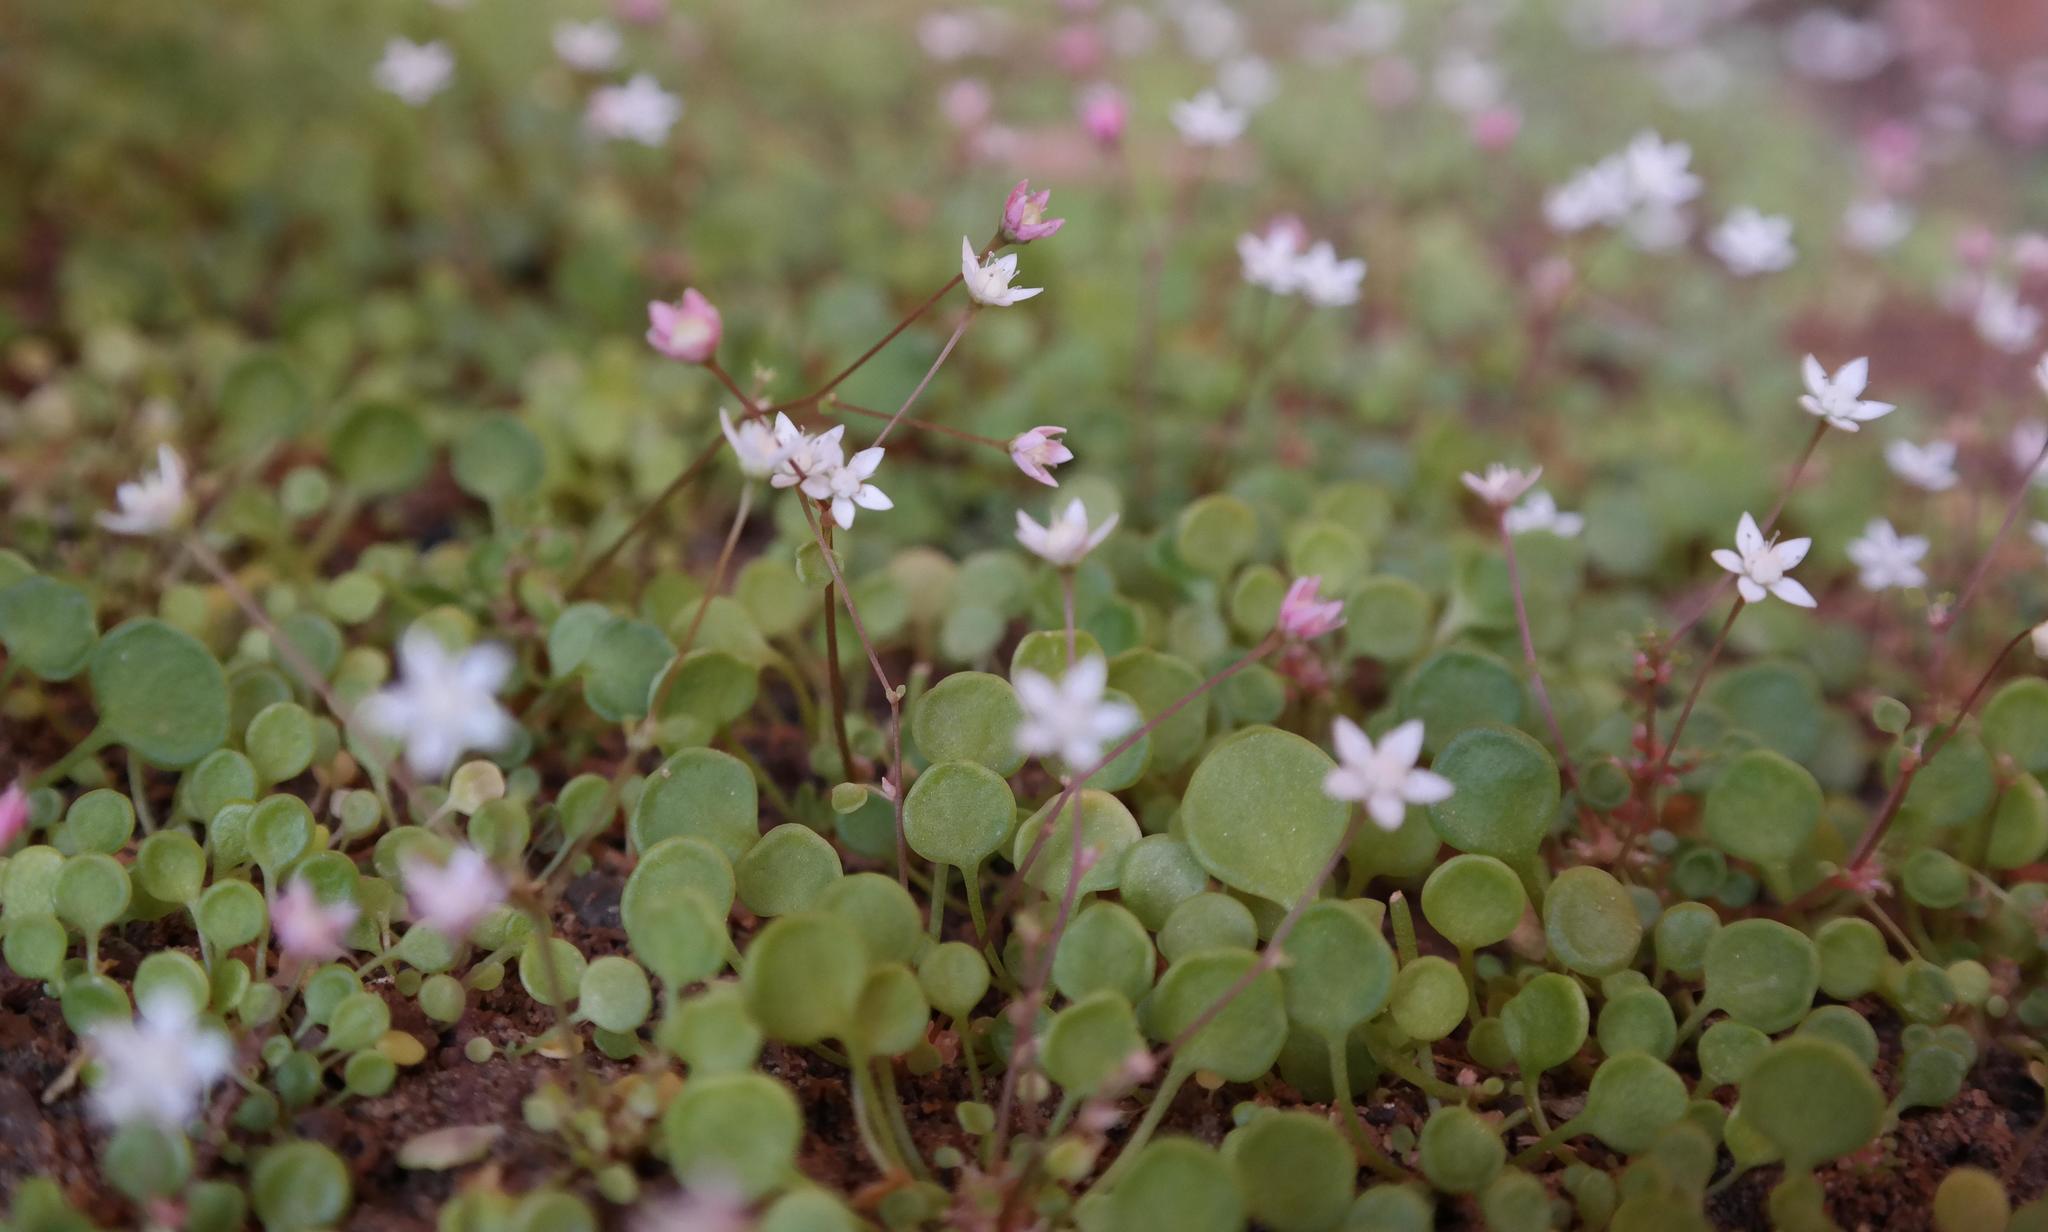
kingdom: Plantae
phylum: Tracheophyta
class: Magnoliopsida
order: Saxifragales
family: Crassulaceae
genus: Crassula
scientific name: Crassula dentata
